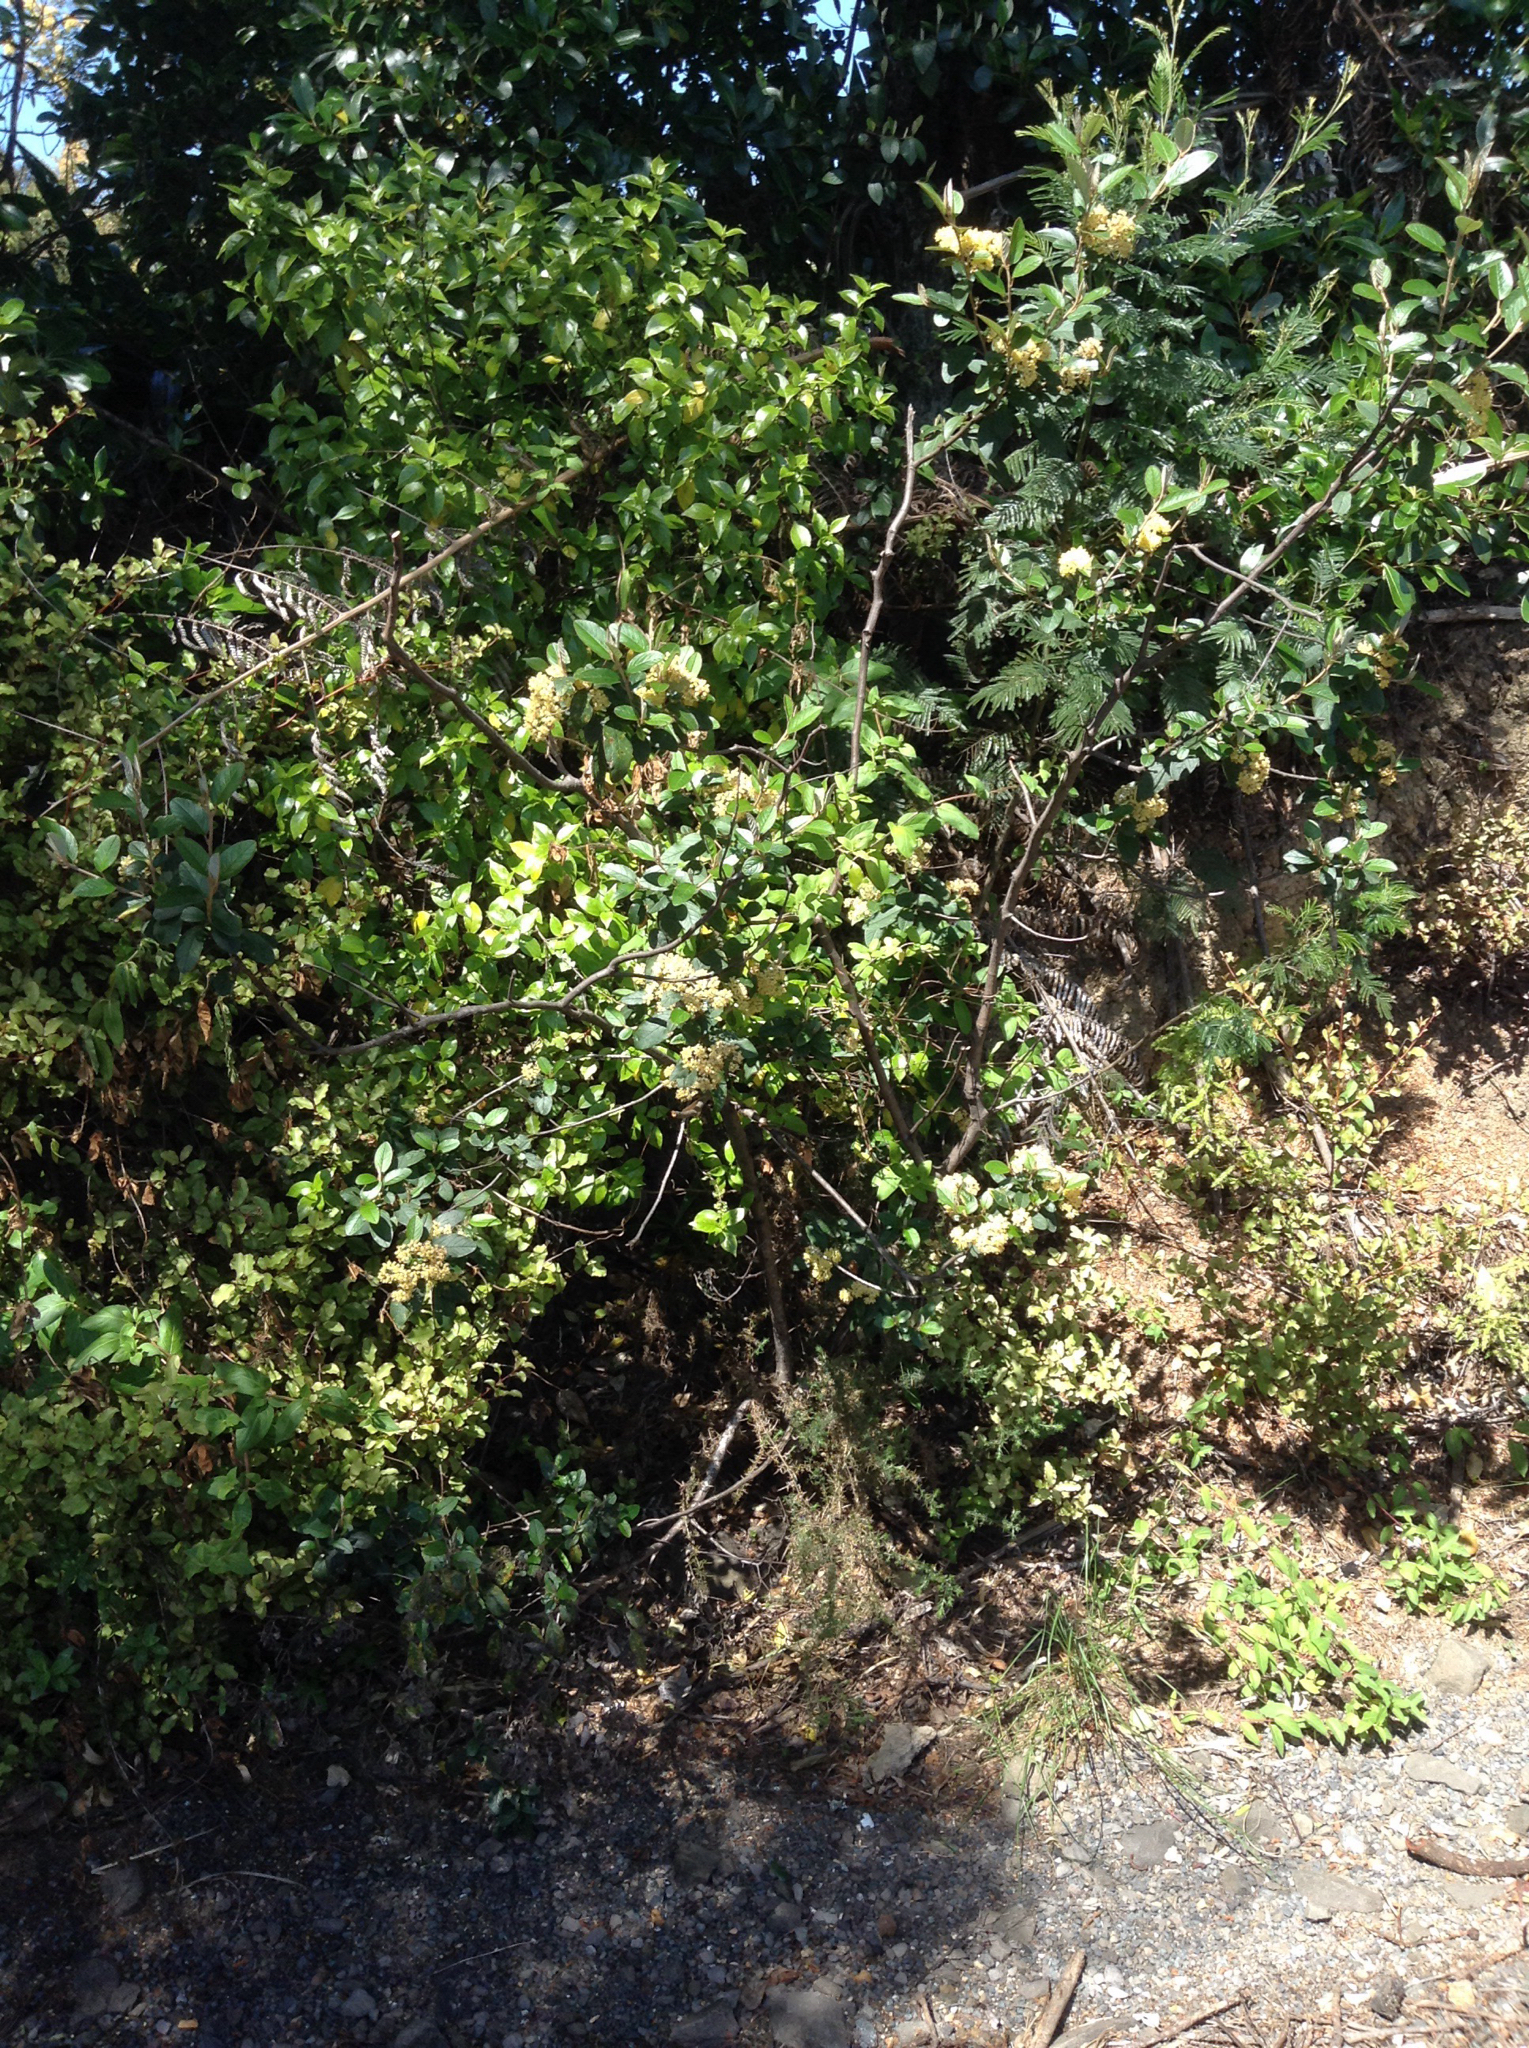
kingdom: Plantae
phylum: Tracheophyta
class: Magnoliopsida
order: Rosales
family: Rhamnaceae
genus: Pomaderris
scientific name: Pomaderris kumeraho
